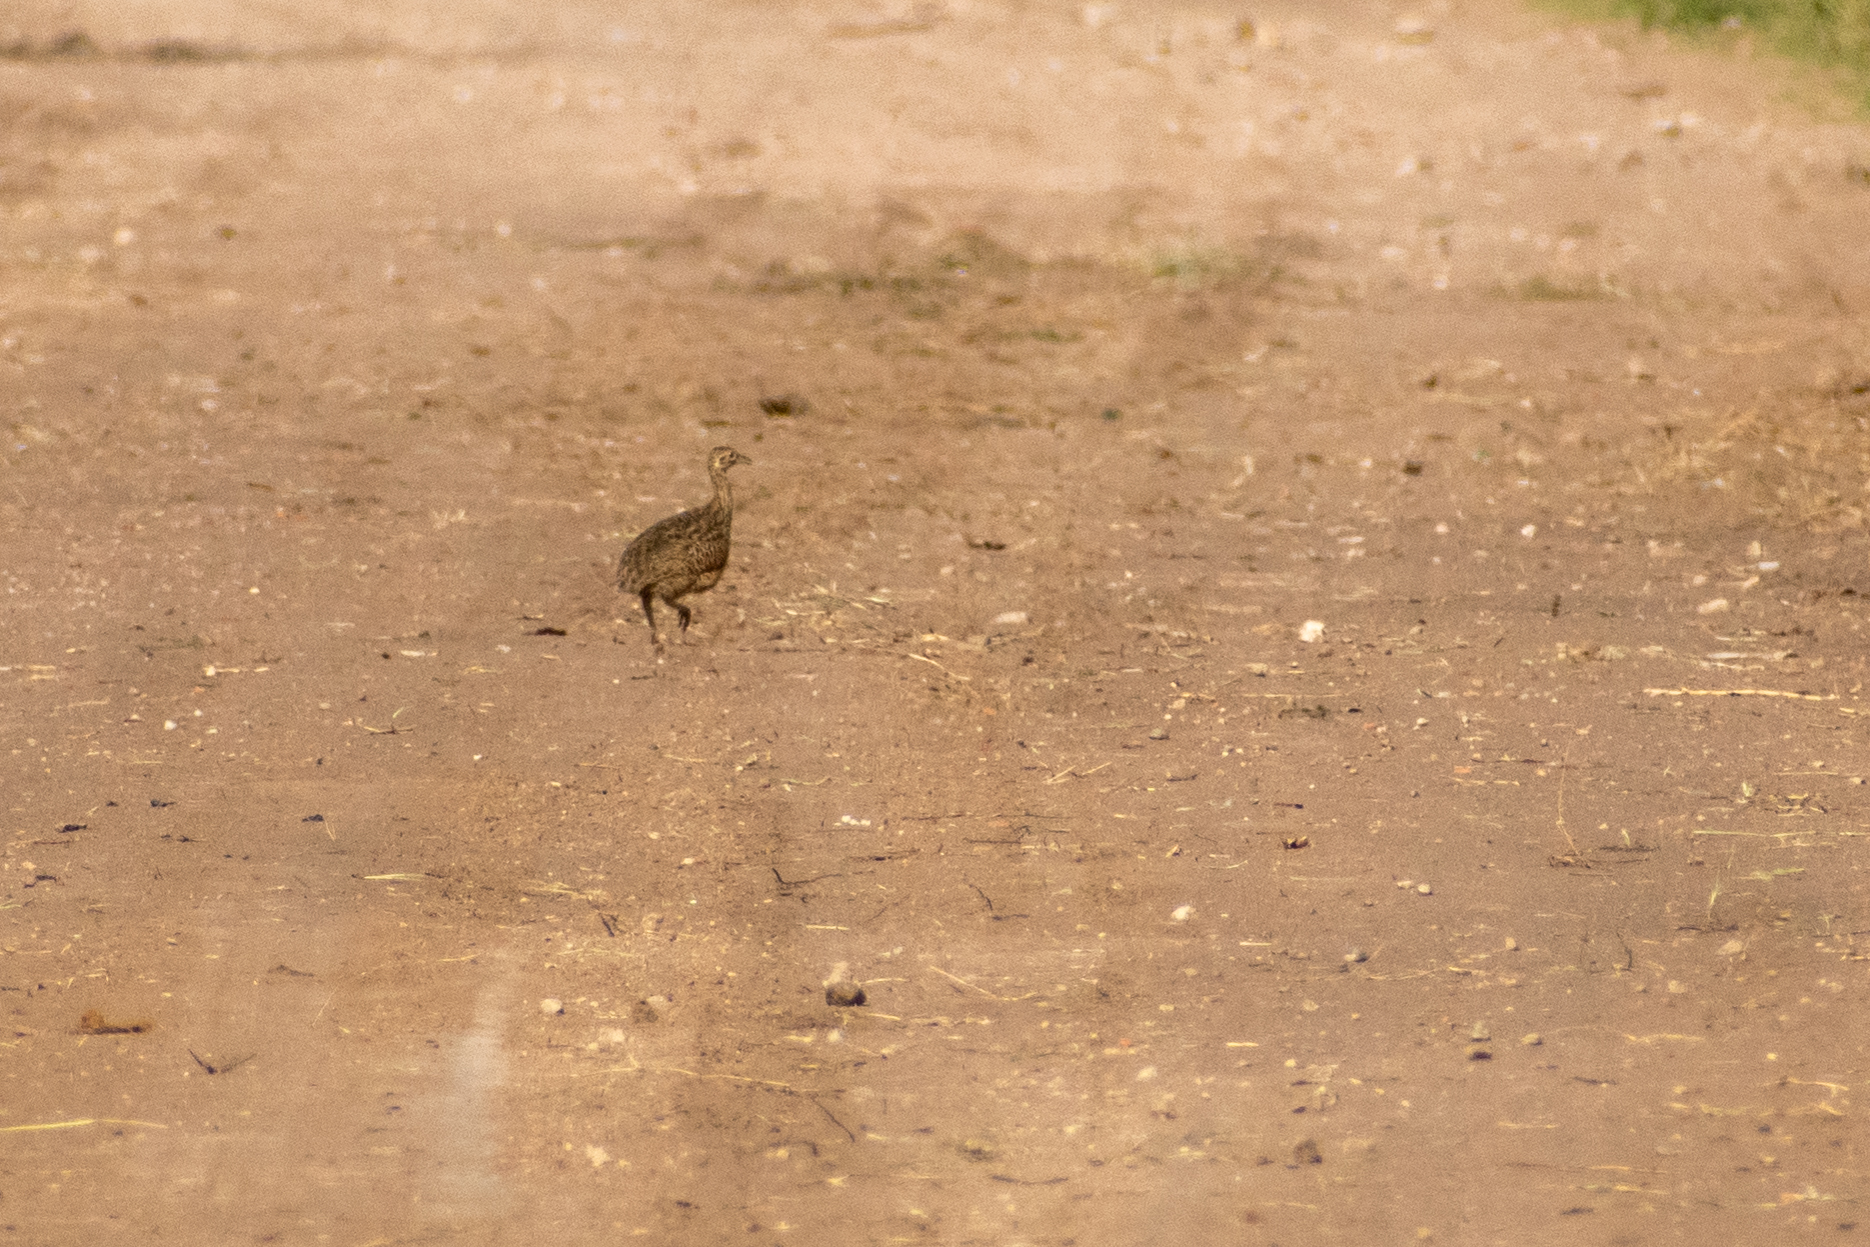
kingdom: Animalia
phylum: Chordata
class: Aves
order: Tinamiformes
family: Tinamidae
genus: Nothura
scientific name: Nothura maculosa
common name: Spotted nothura
